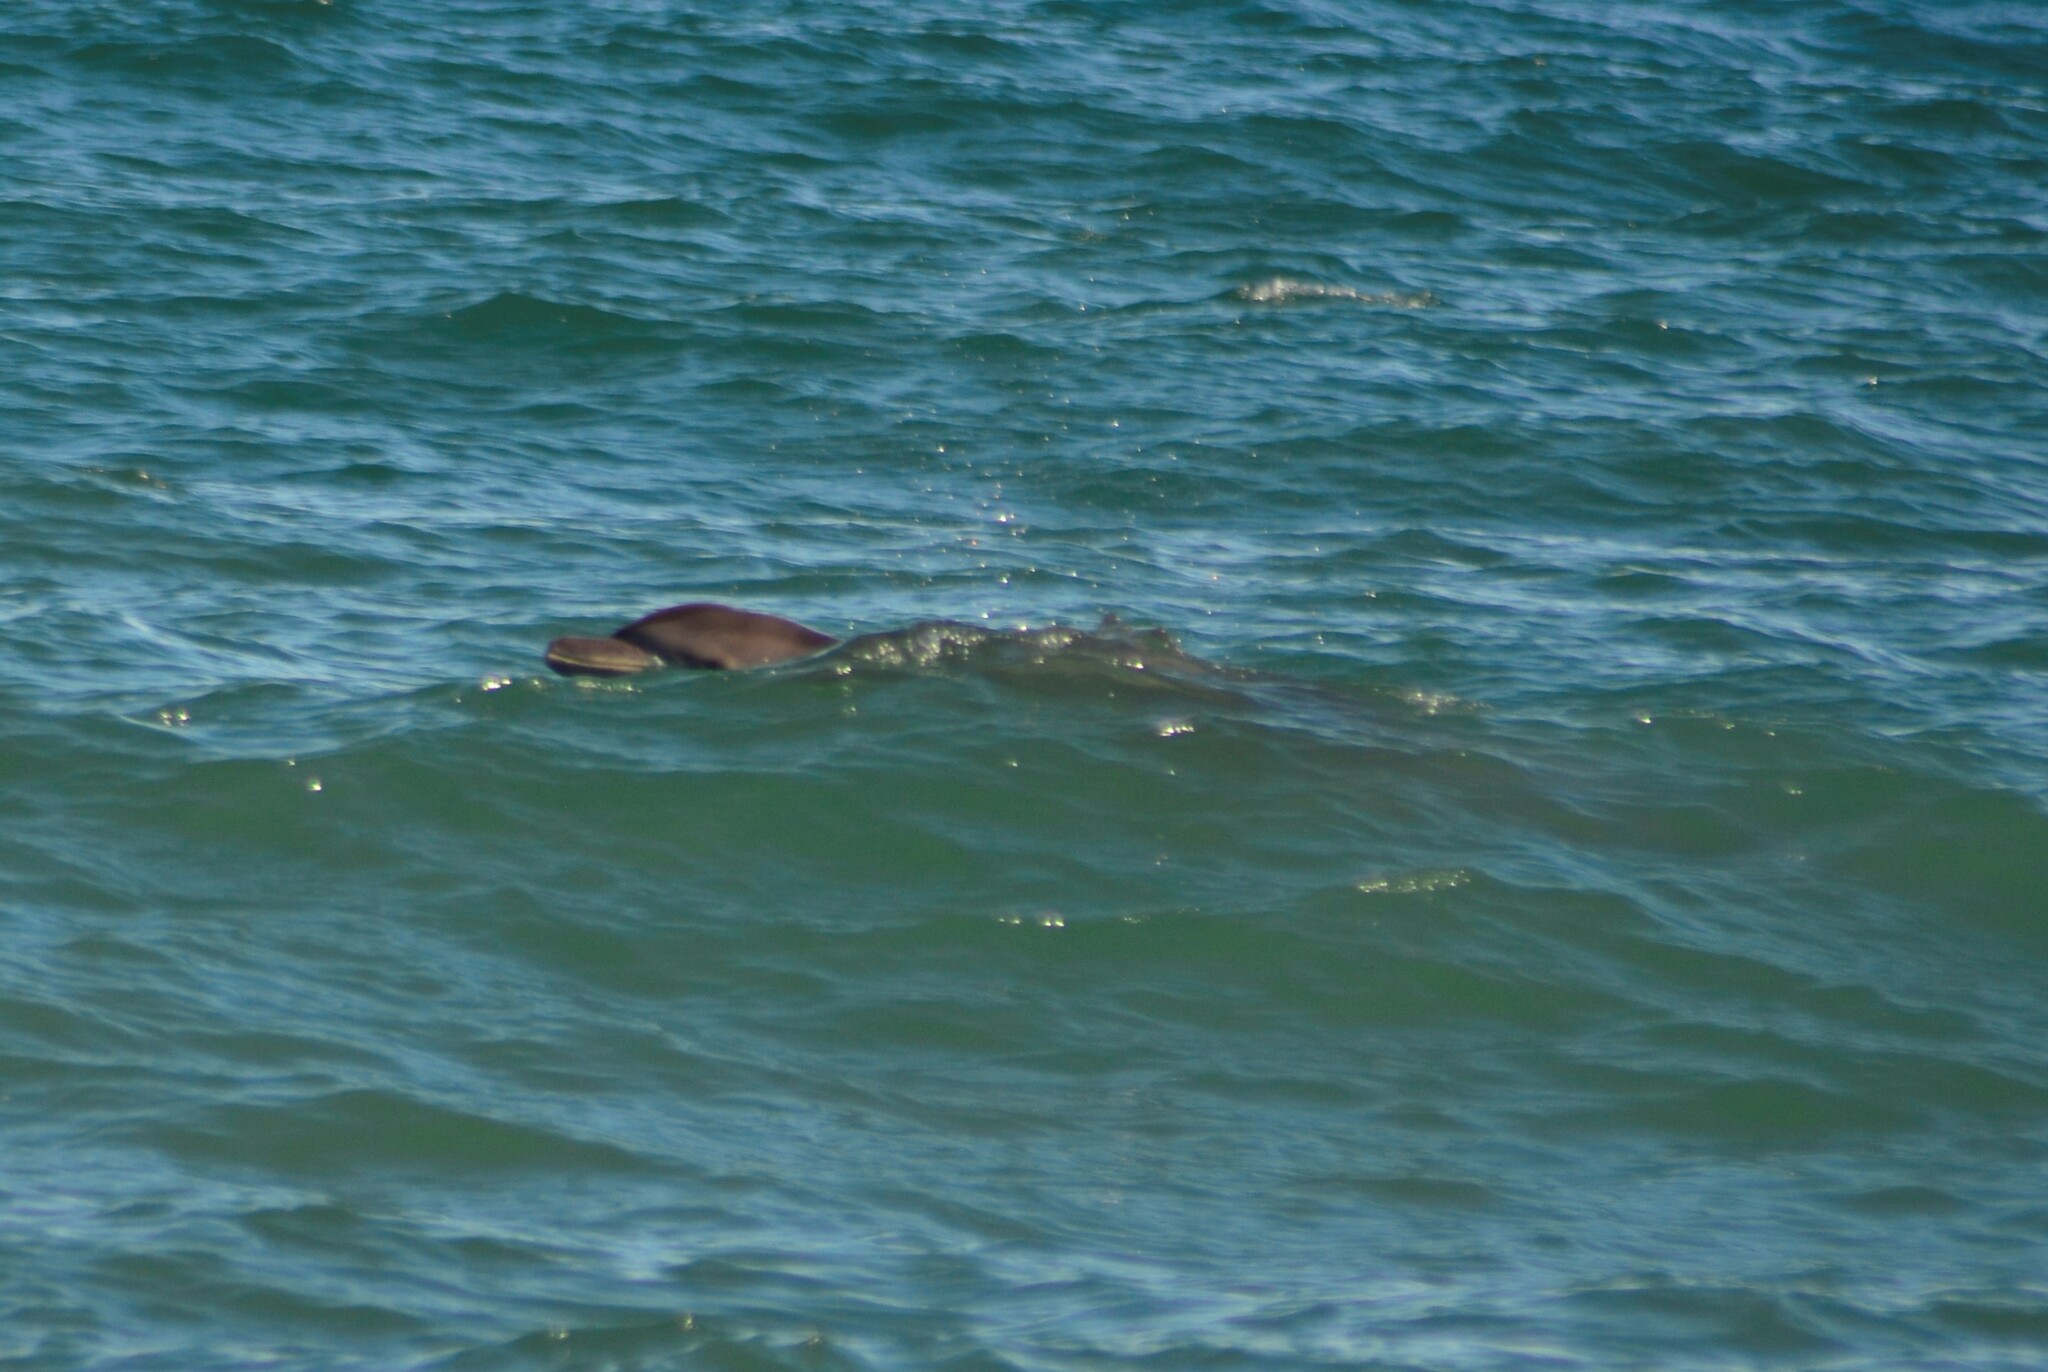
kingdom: Animalia
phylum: Chordata
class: Mammalia
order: Cetacea
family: Delphinidae
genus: Tursiops
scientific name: Tursiops truncatus
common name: Bottlenose dolphin
